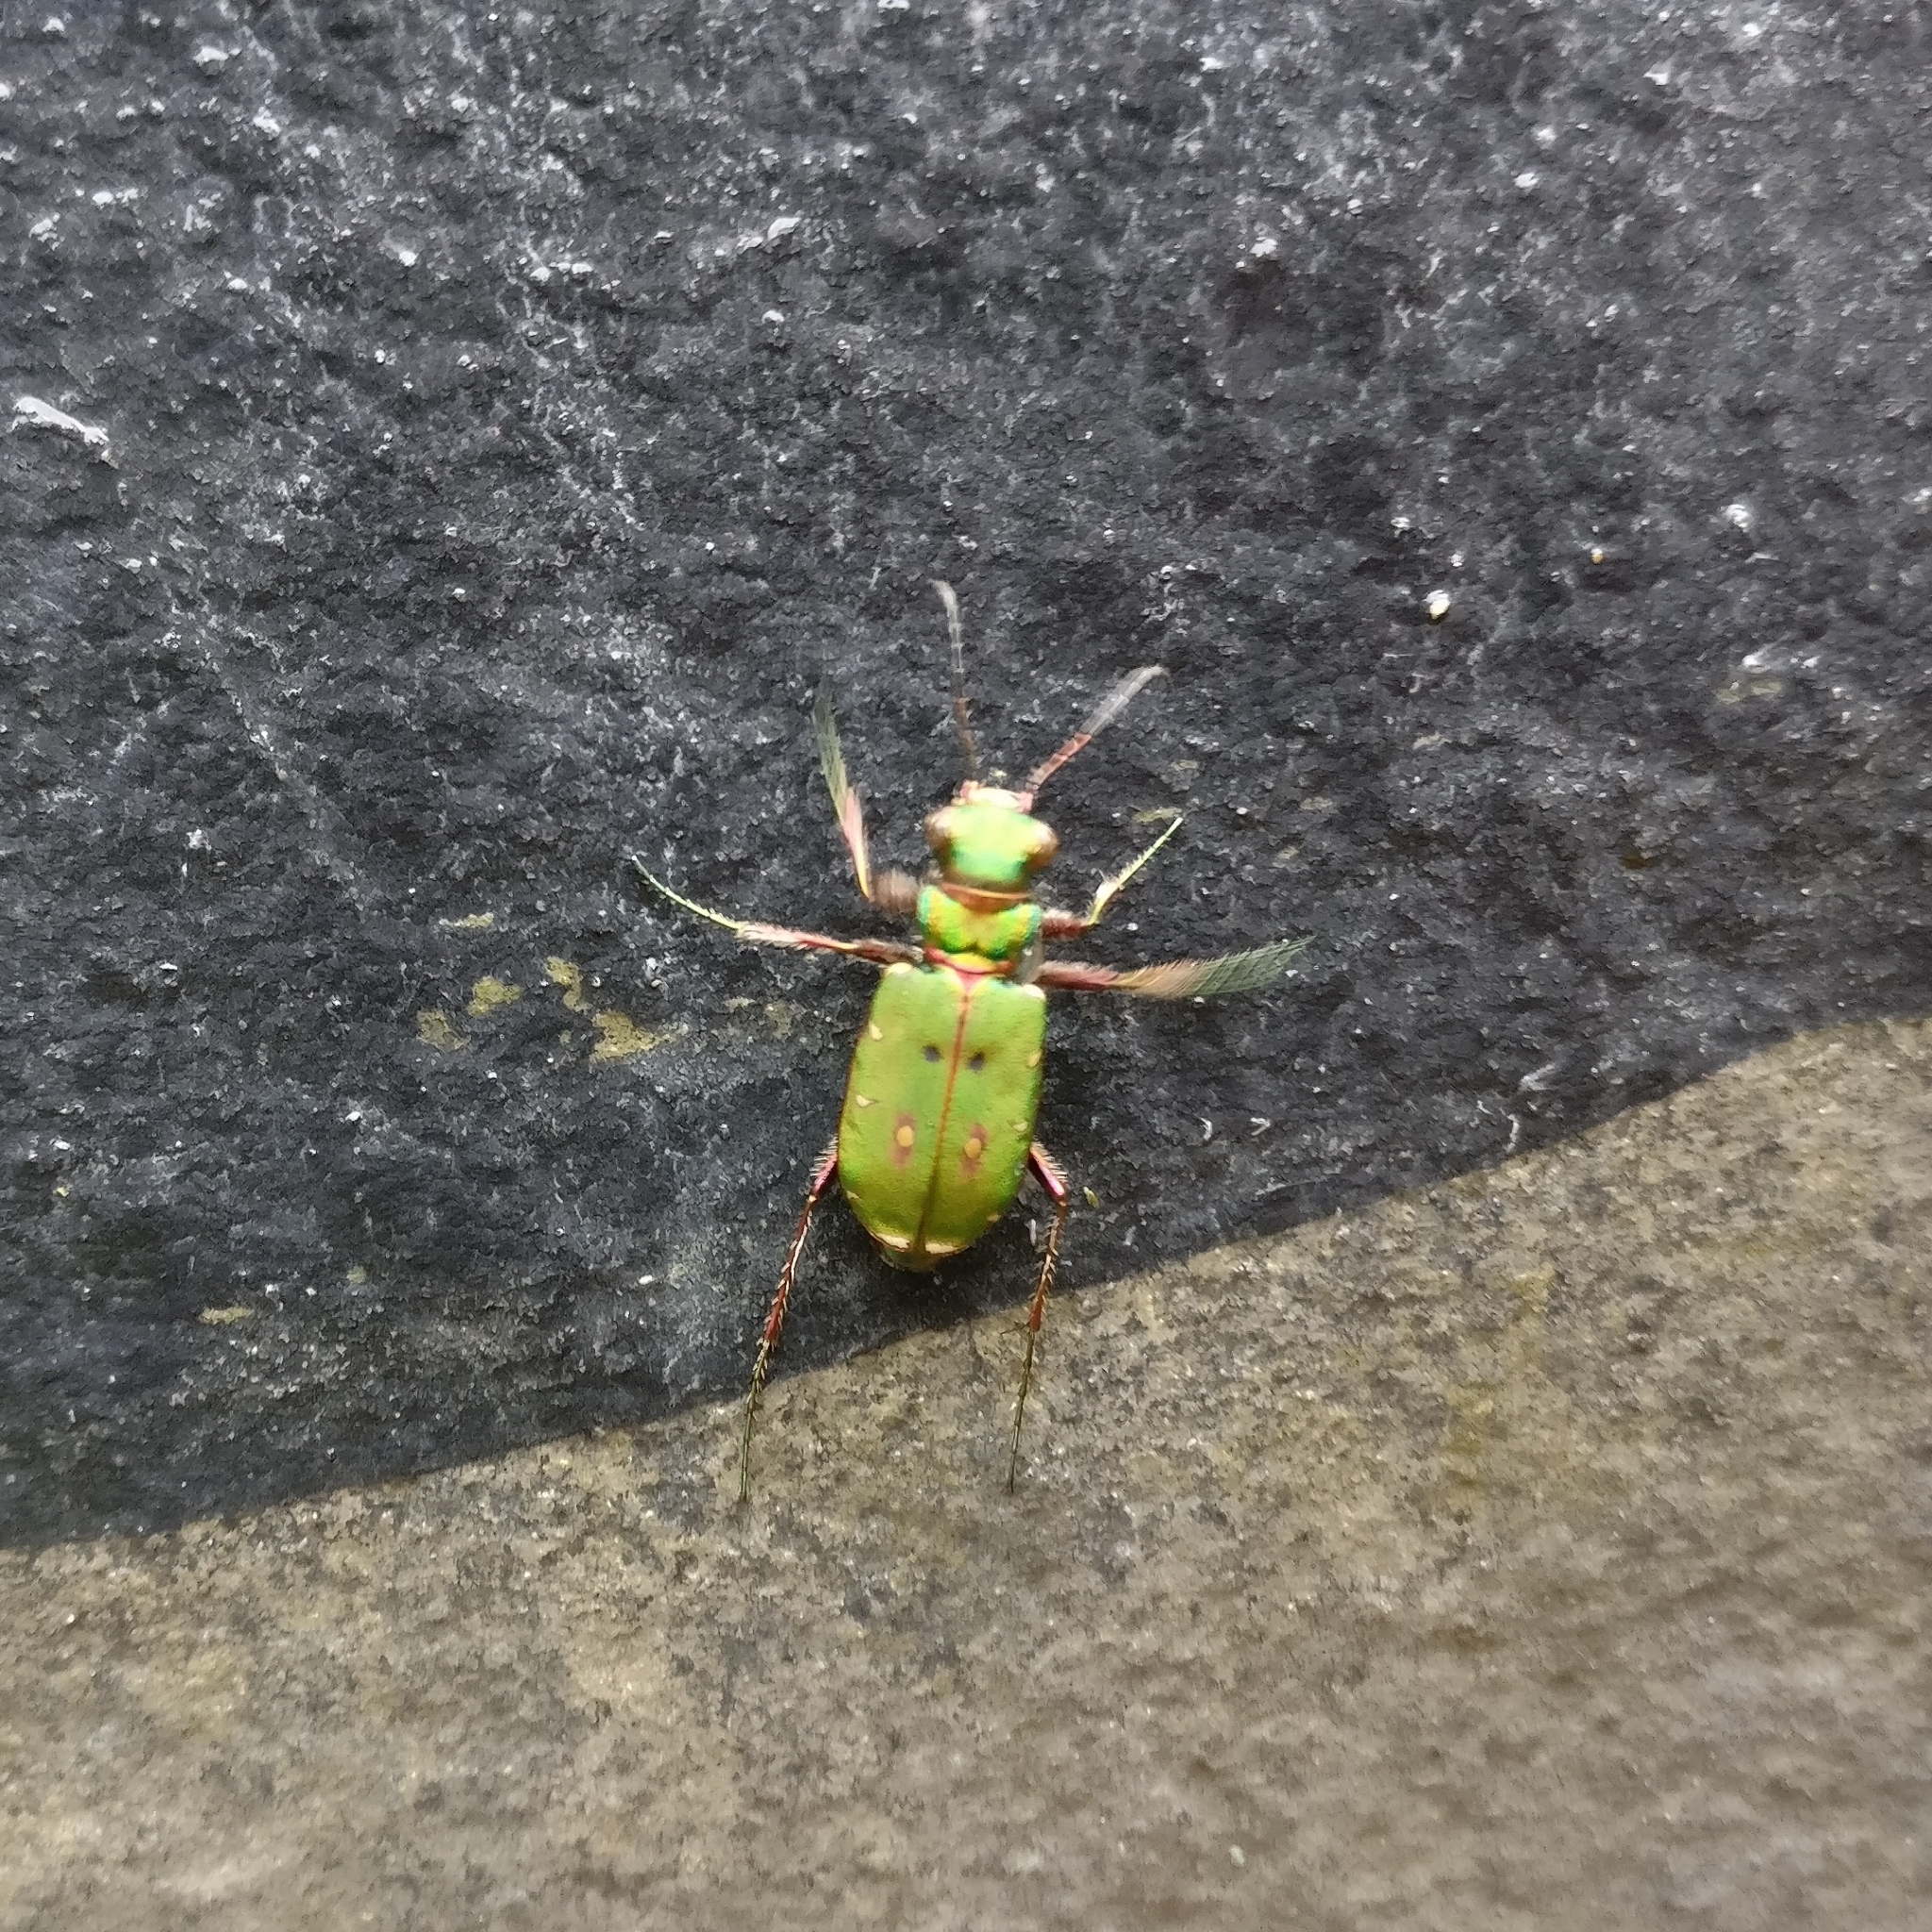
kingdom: Animalia
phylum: Arthropoda
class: Insecta
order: Coleoptera
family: Carabidae
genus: Cicindela
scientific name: Cicindela campestris
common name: Common tiger beetle
